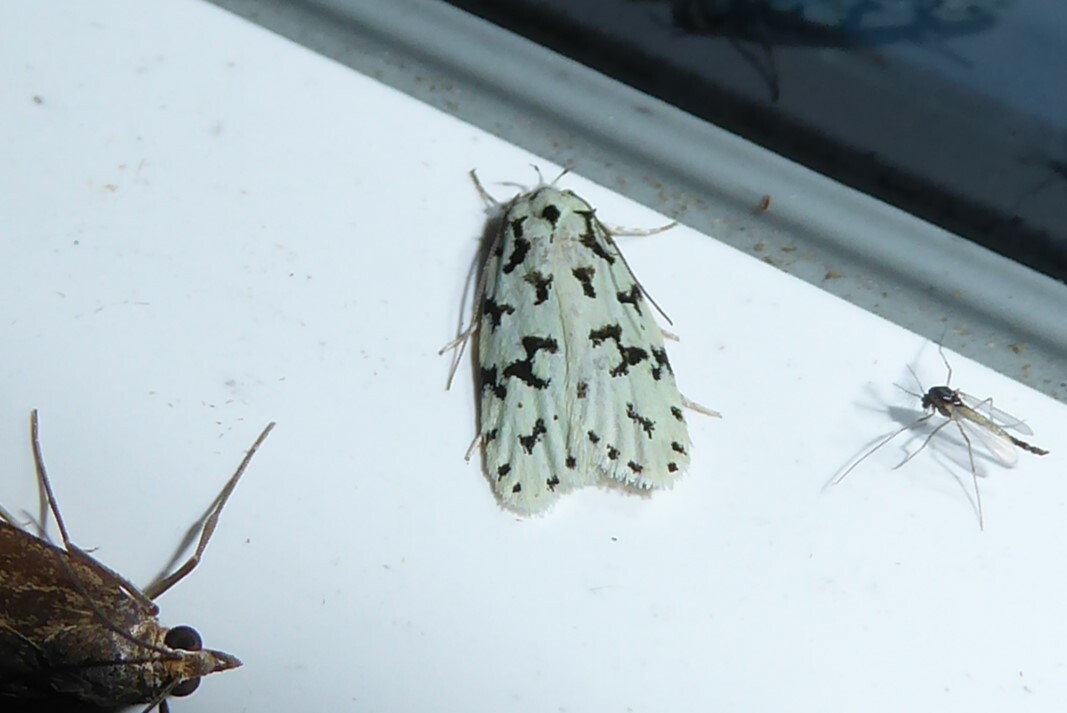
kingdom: Animalia
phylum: Arthropoda
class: Insecta
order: Lepidoptera
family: Oecophoridae
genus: Izatha
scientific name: Izatha huttoni
